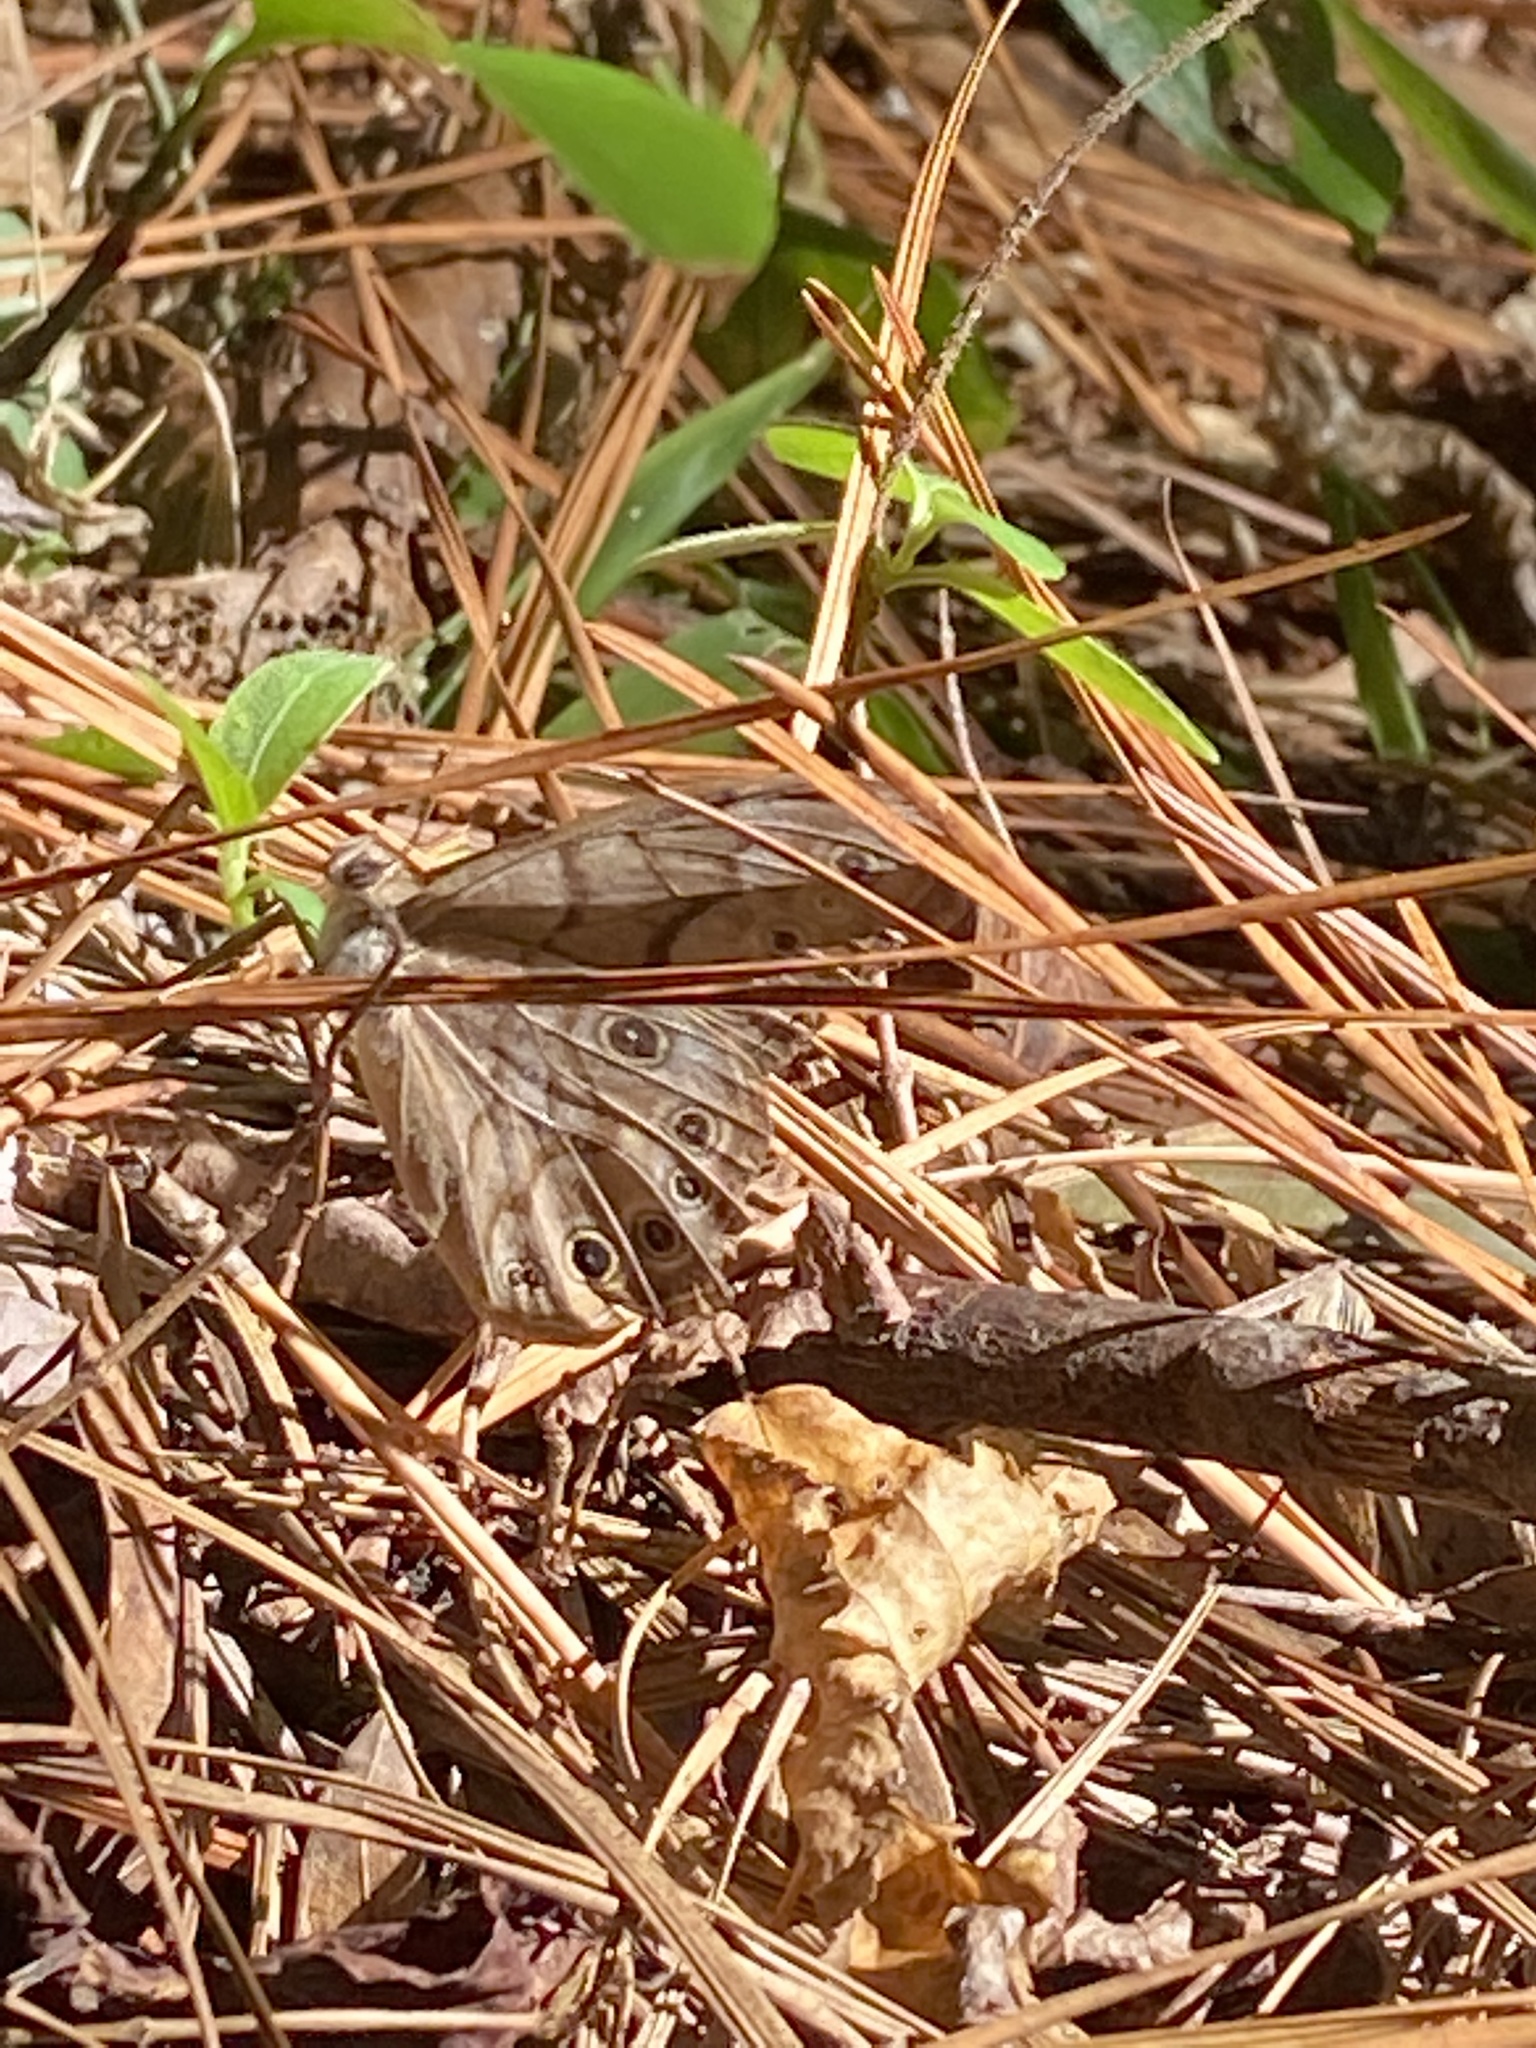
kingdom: Animalia
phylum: Arthropoda
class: Insecta
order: Lepidoptera
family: Nymphalidae
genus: Lethe
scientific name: Lethe creola
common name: Creole pearly-eye
